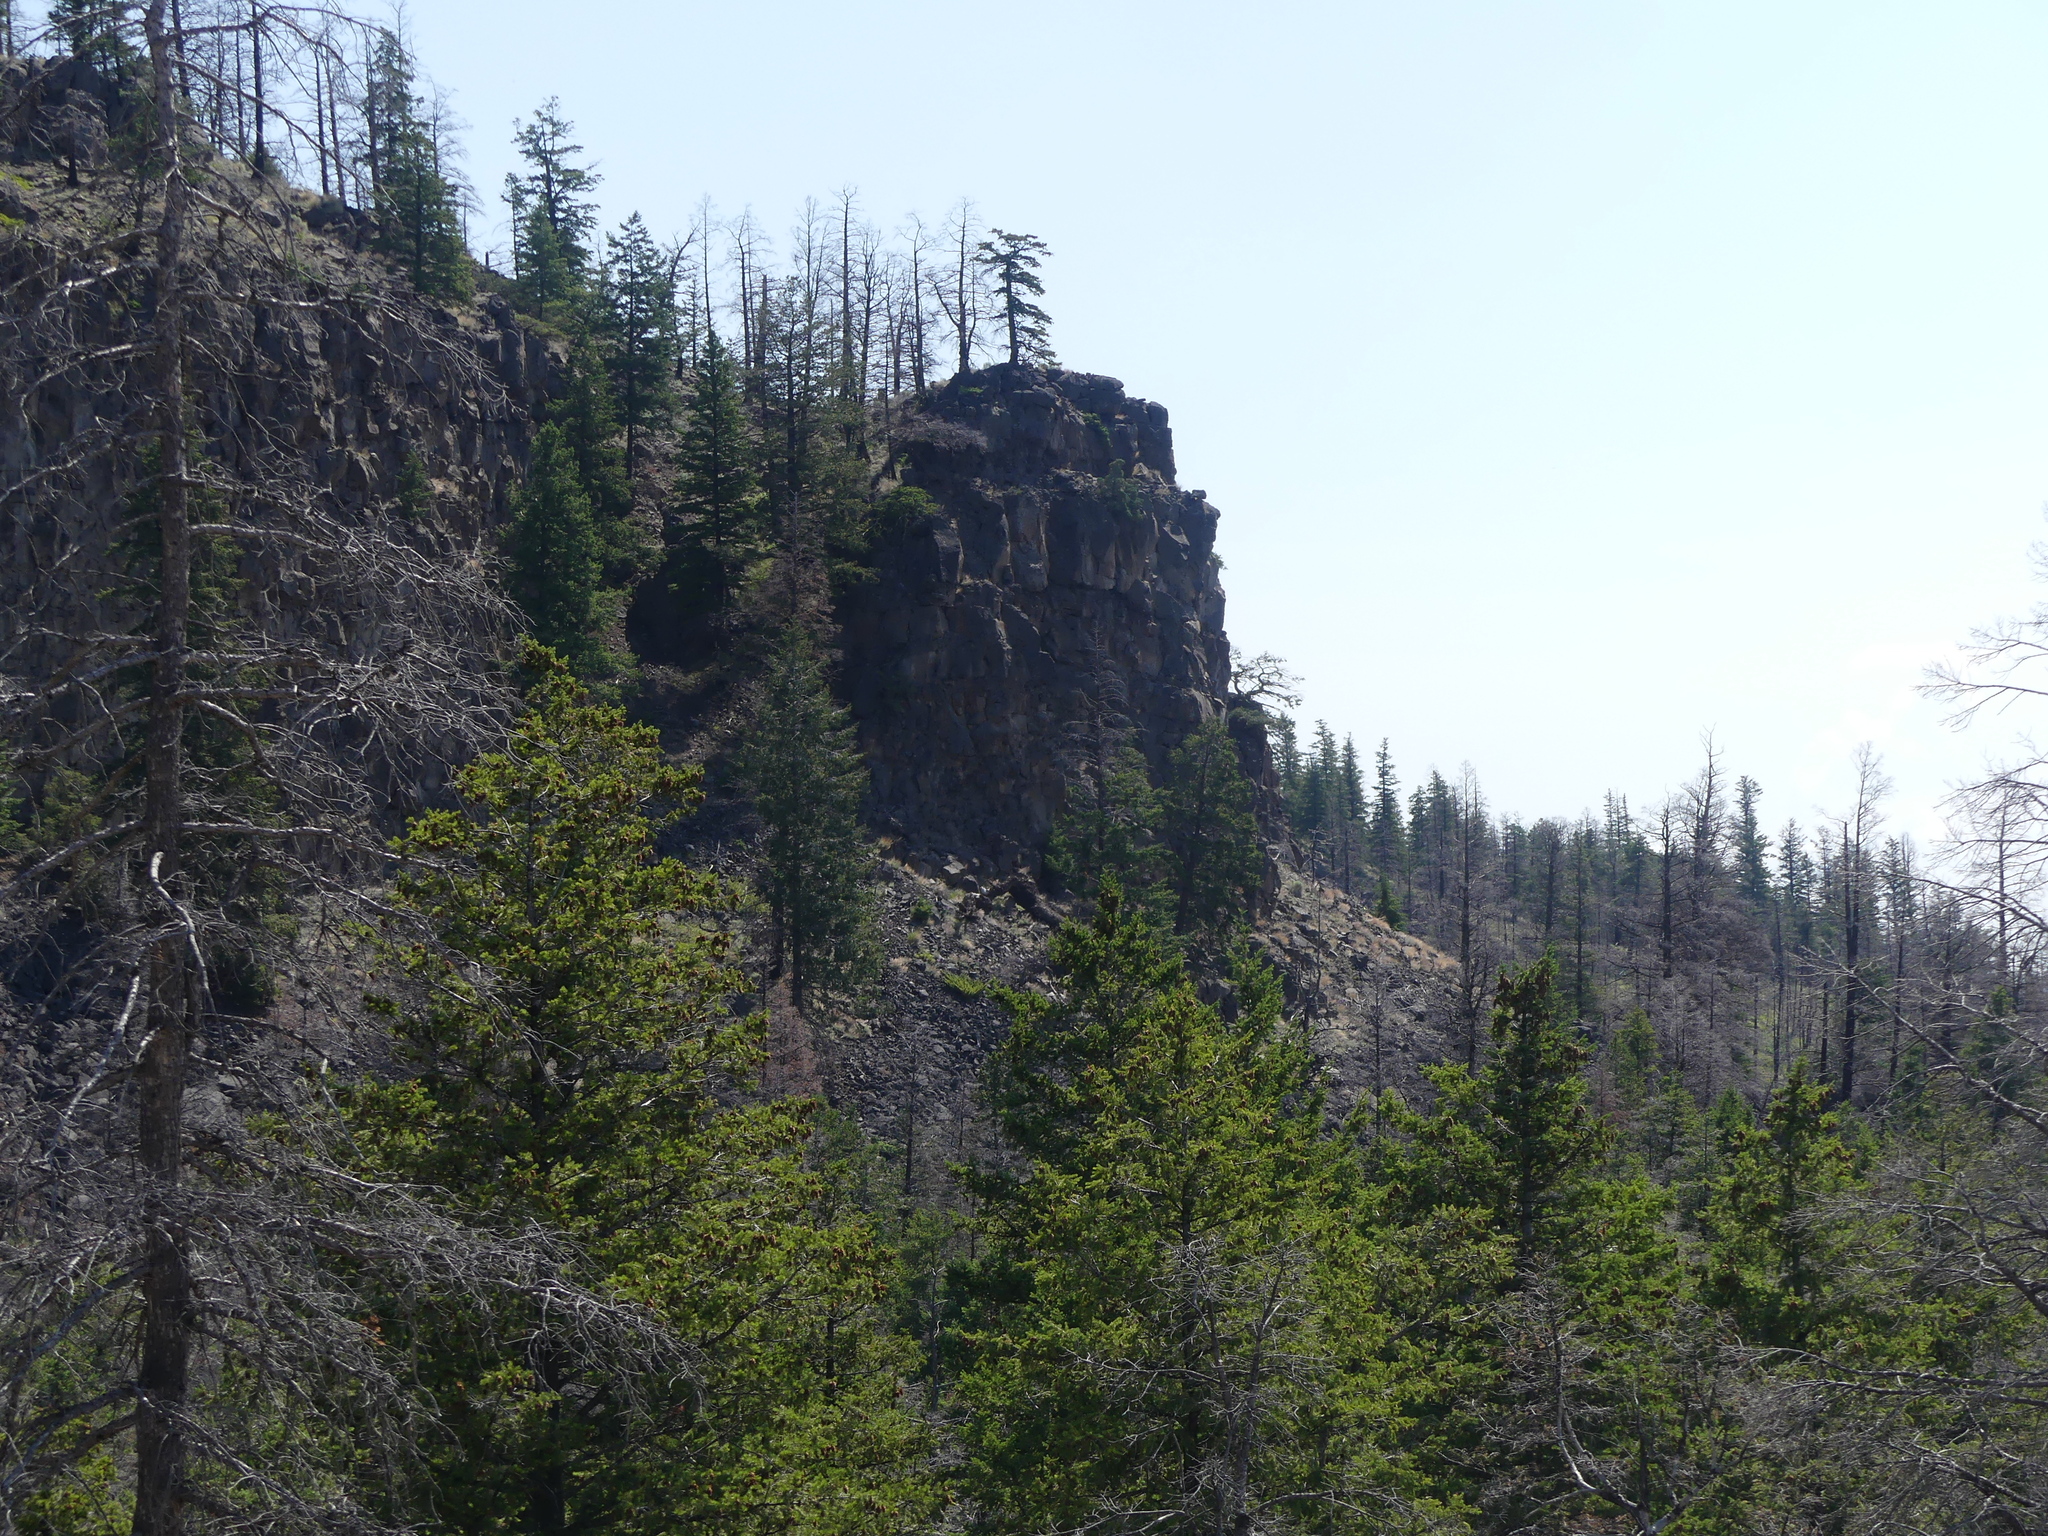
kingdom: Plantae
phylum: Tracheophyta
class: Pinopsida
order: Pinales
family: Pinaceae
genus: Pseudotsuga
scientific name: Pseudotsuga menziesii
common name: Douglas fir
